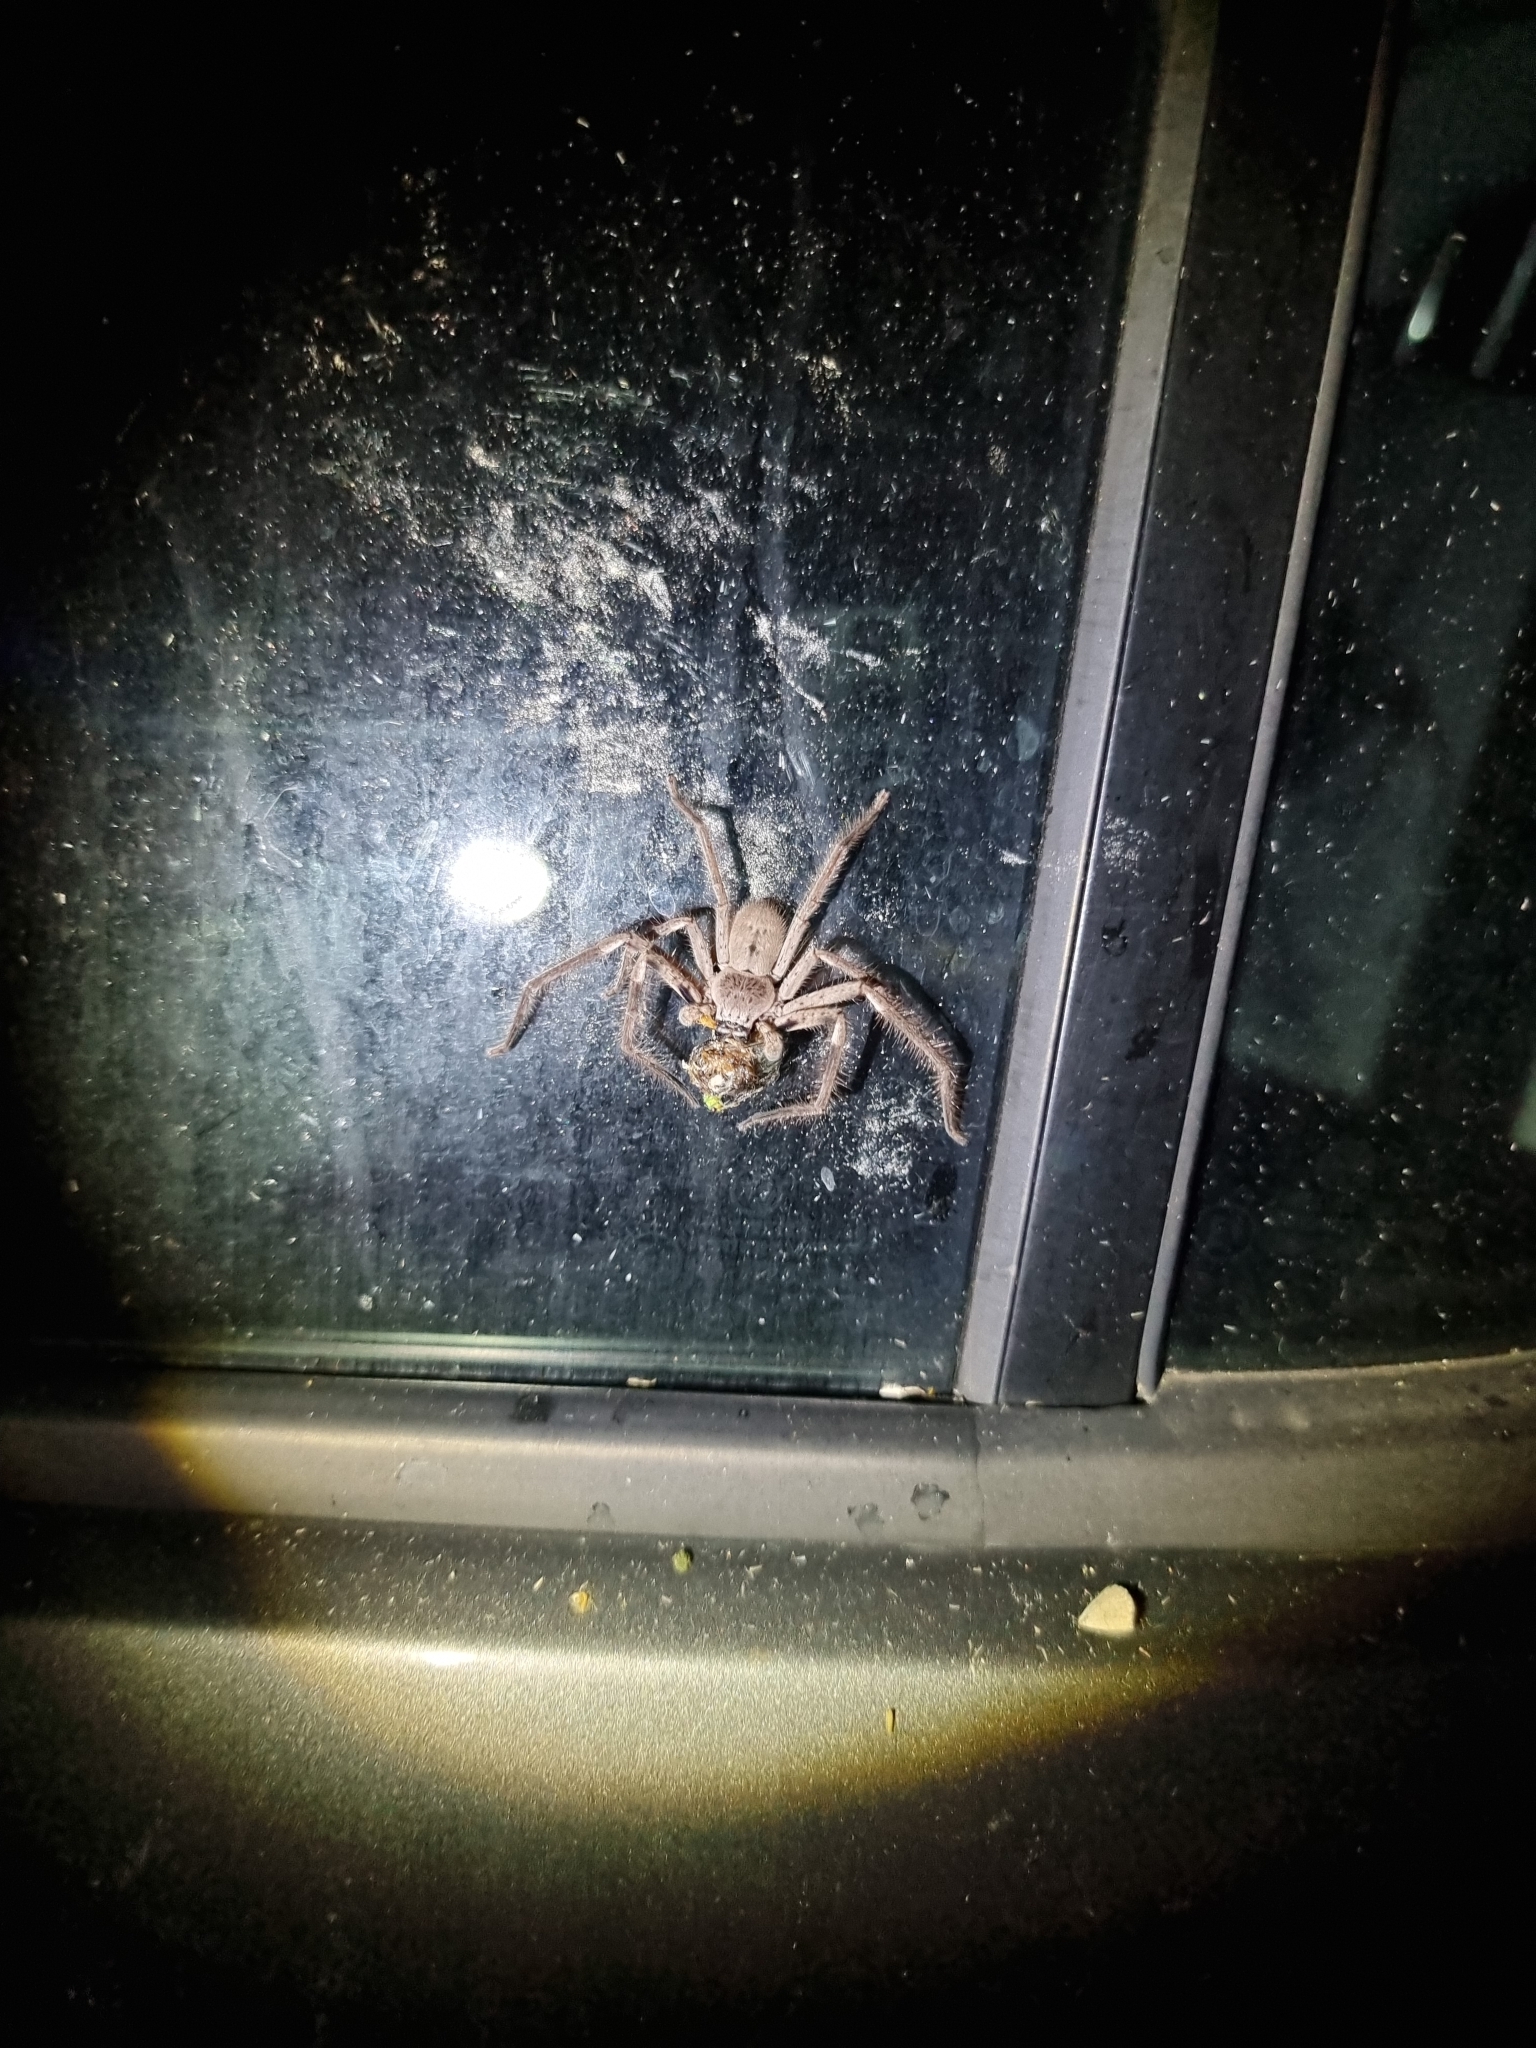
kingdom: Animalia
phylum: Arthropoda
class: Arachnida
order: Araneae
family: Sparassidae
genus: Isopeda
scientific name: Isopeda vasta
